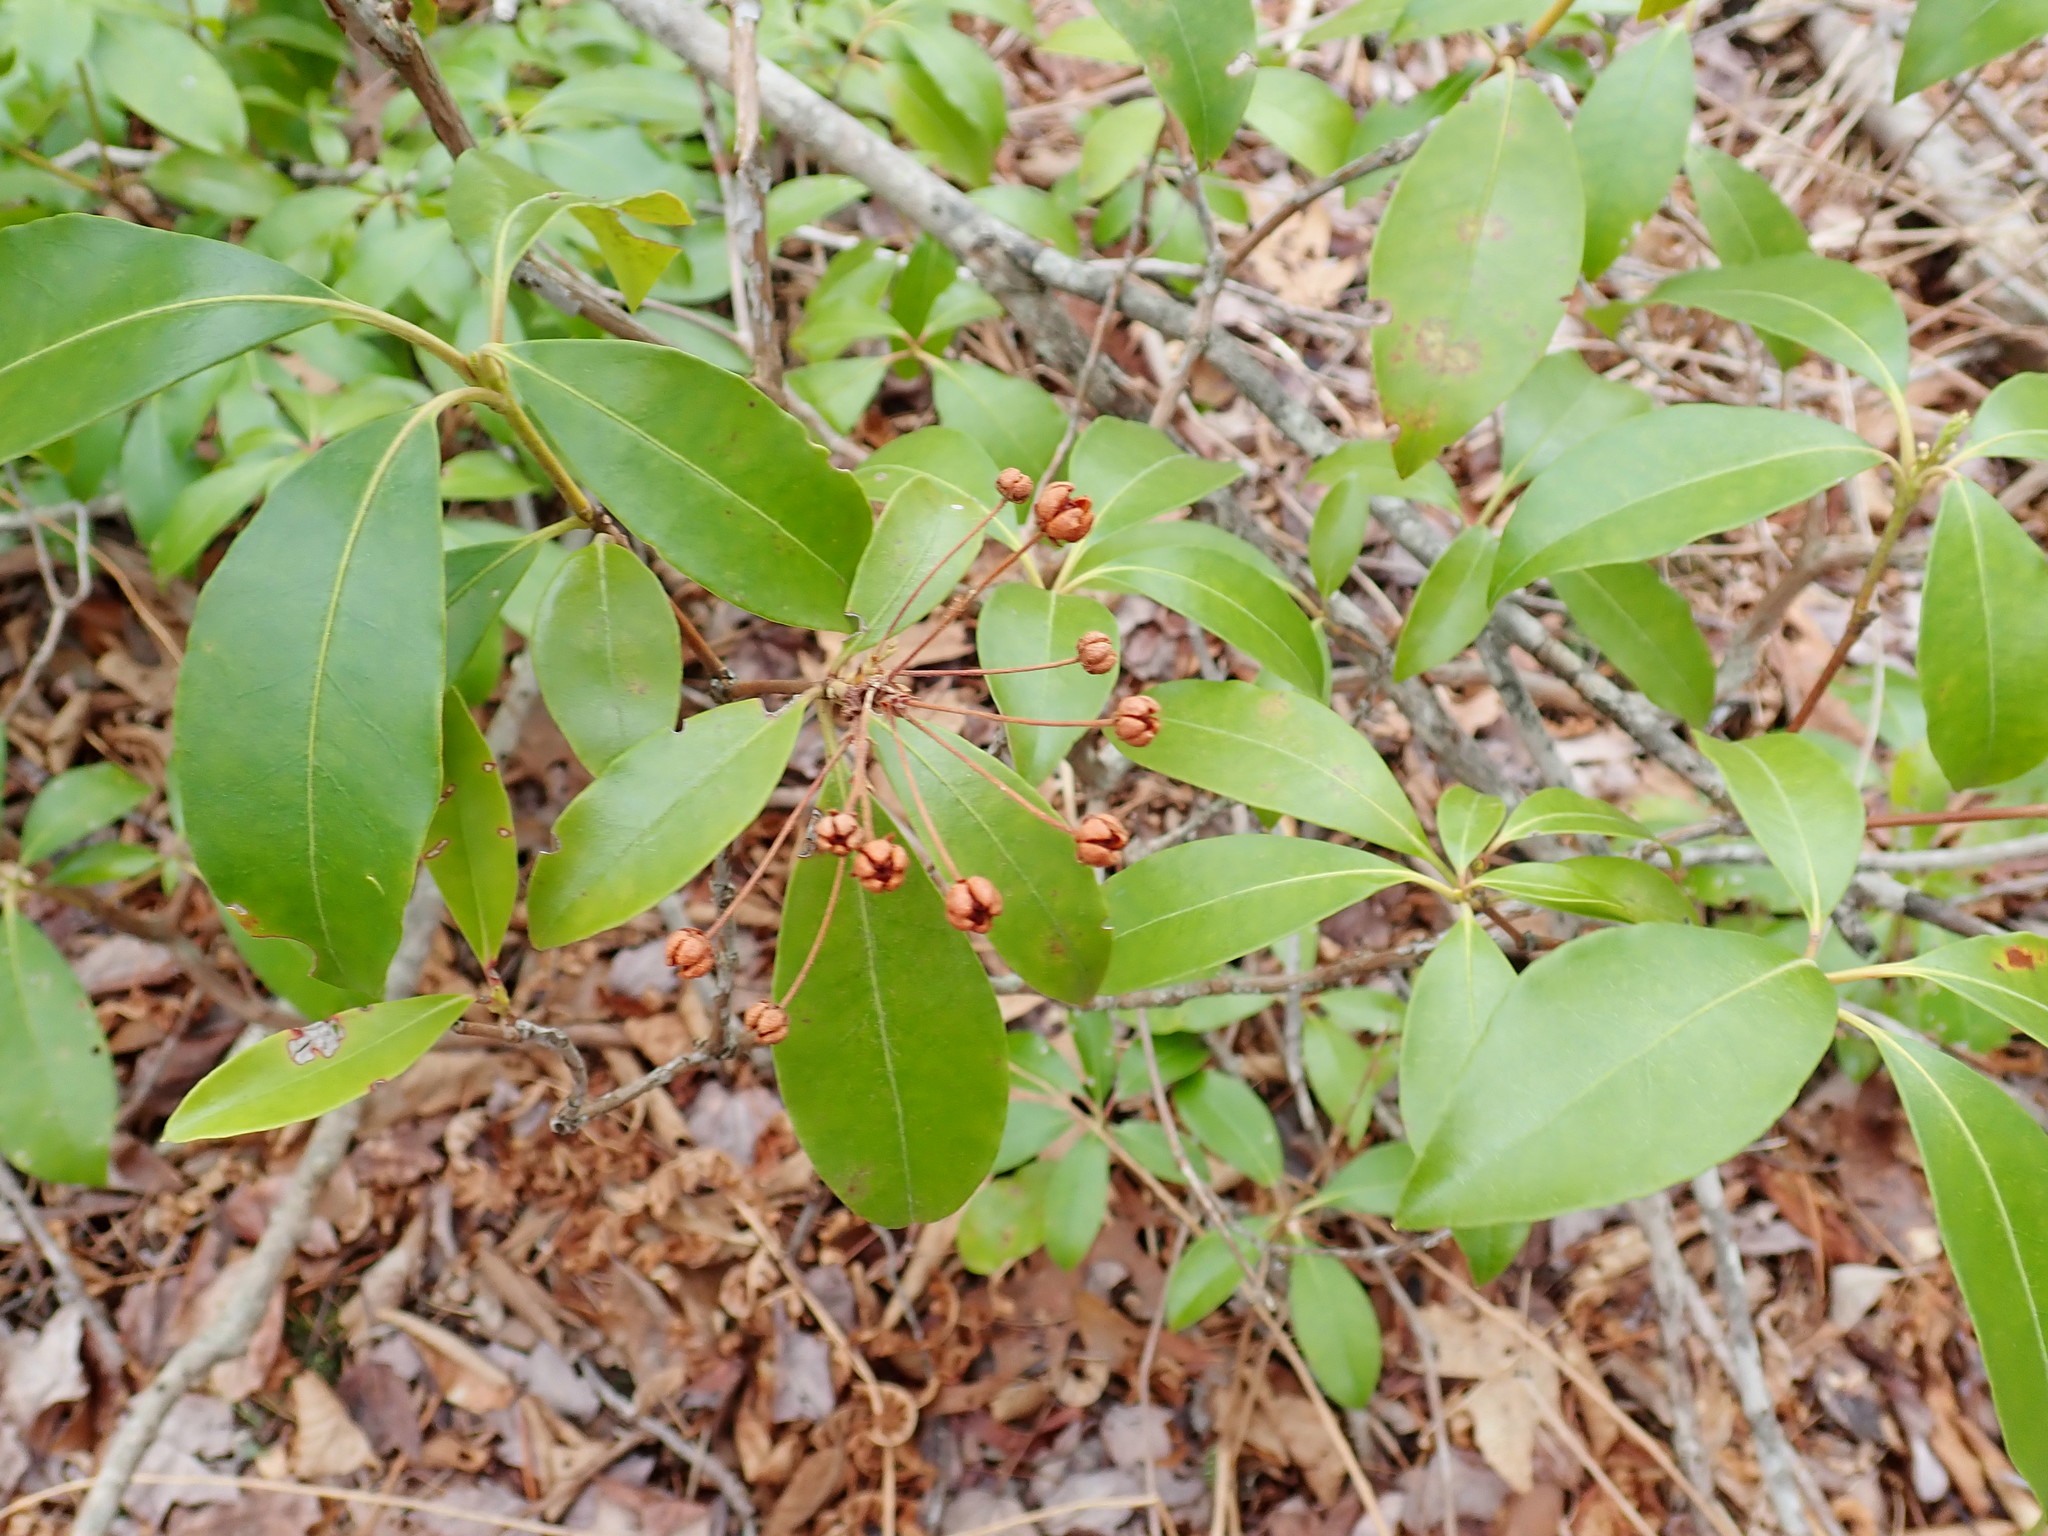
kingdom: Plantae
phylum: Tracheophyta
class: Magnoliopsida
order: Ericales
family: Ericaceae
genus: Kalmia
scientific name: Kalmia latifolia
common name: Mountain-laurel
